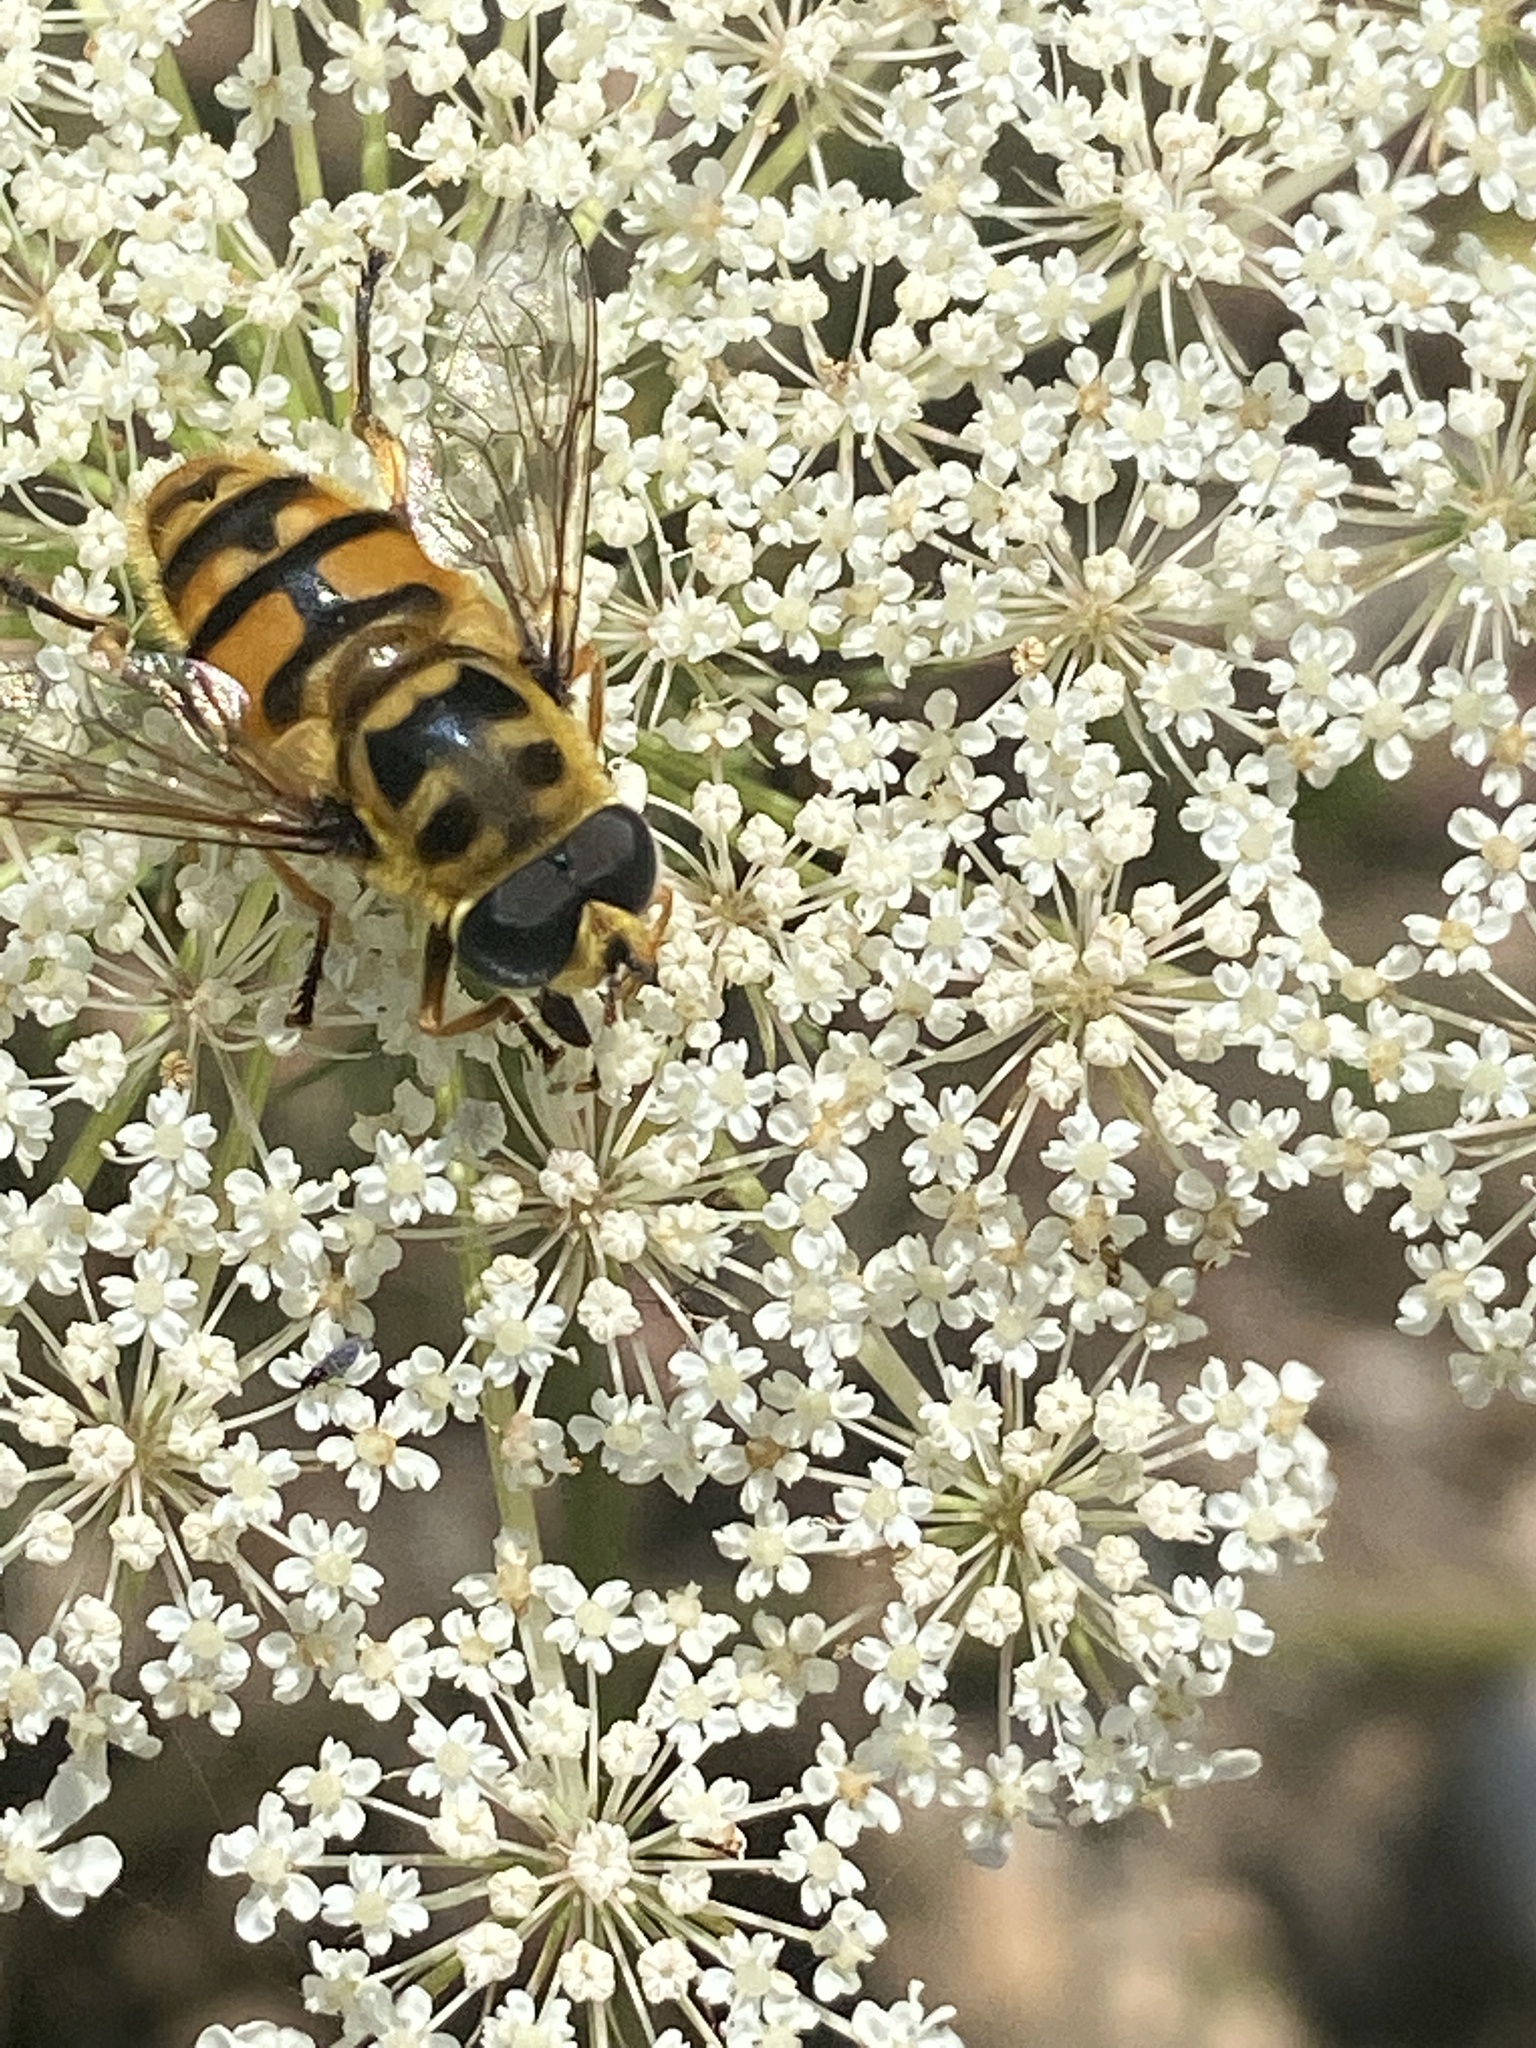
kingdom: Animalia
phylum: Arthropoda
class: Insecta
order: Diptera
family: Syrphidae
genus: Myathropa
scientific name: Myathropa florea
